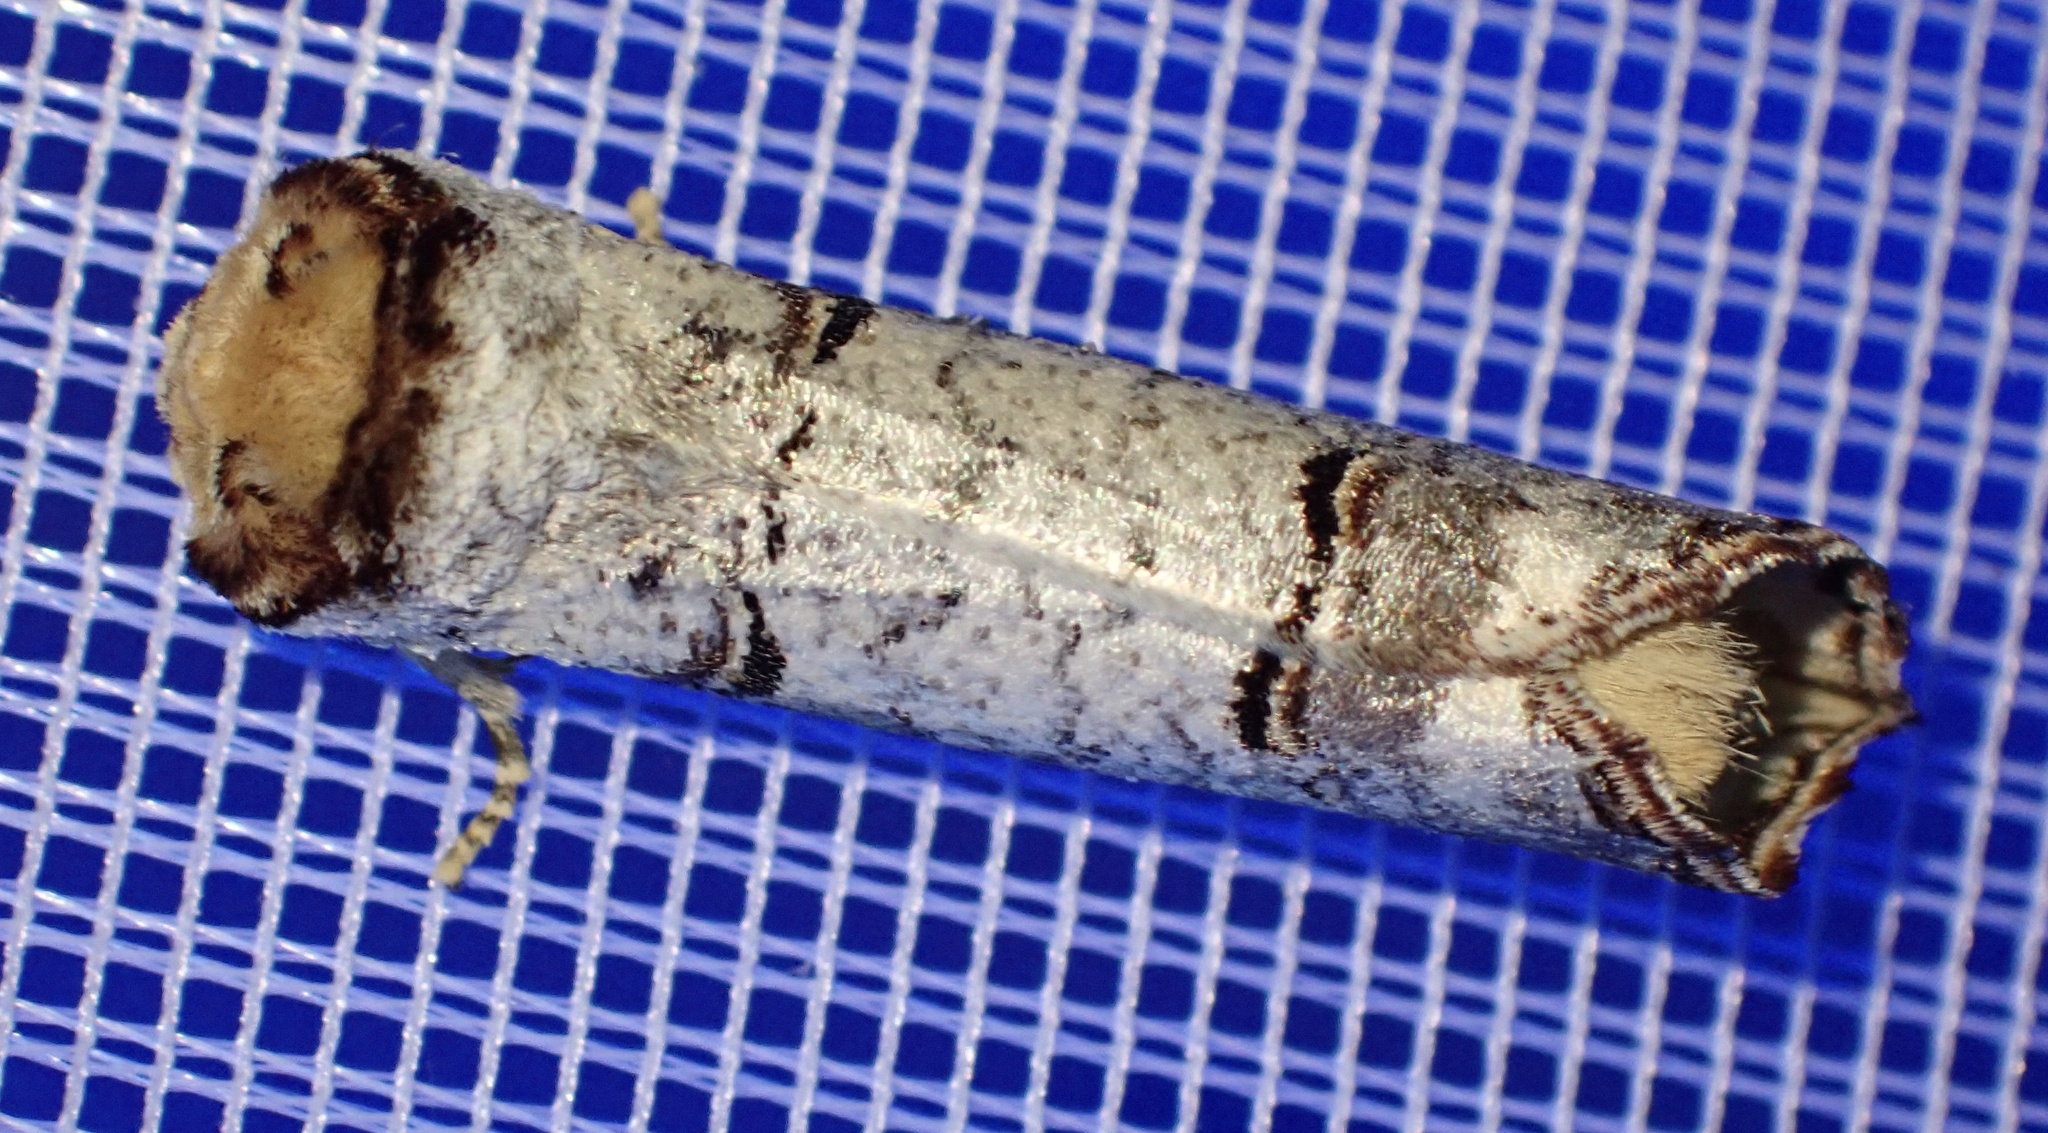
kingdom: Animalia
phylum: Arthropoda
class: Insecta
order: Lepidoptera
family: Notodontidae
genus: Phalera
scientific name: Phalera bucephala
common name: Buff-tip
